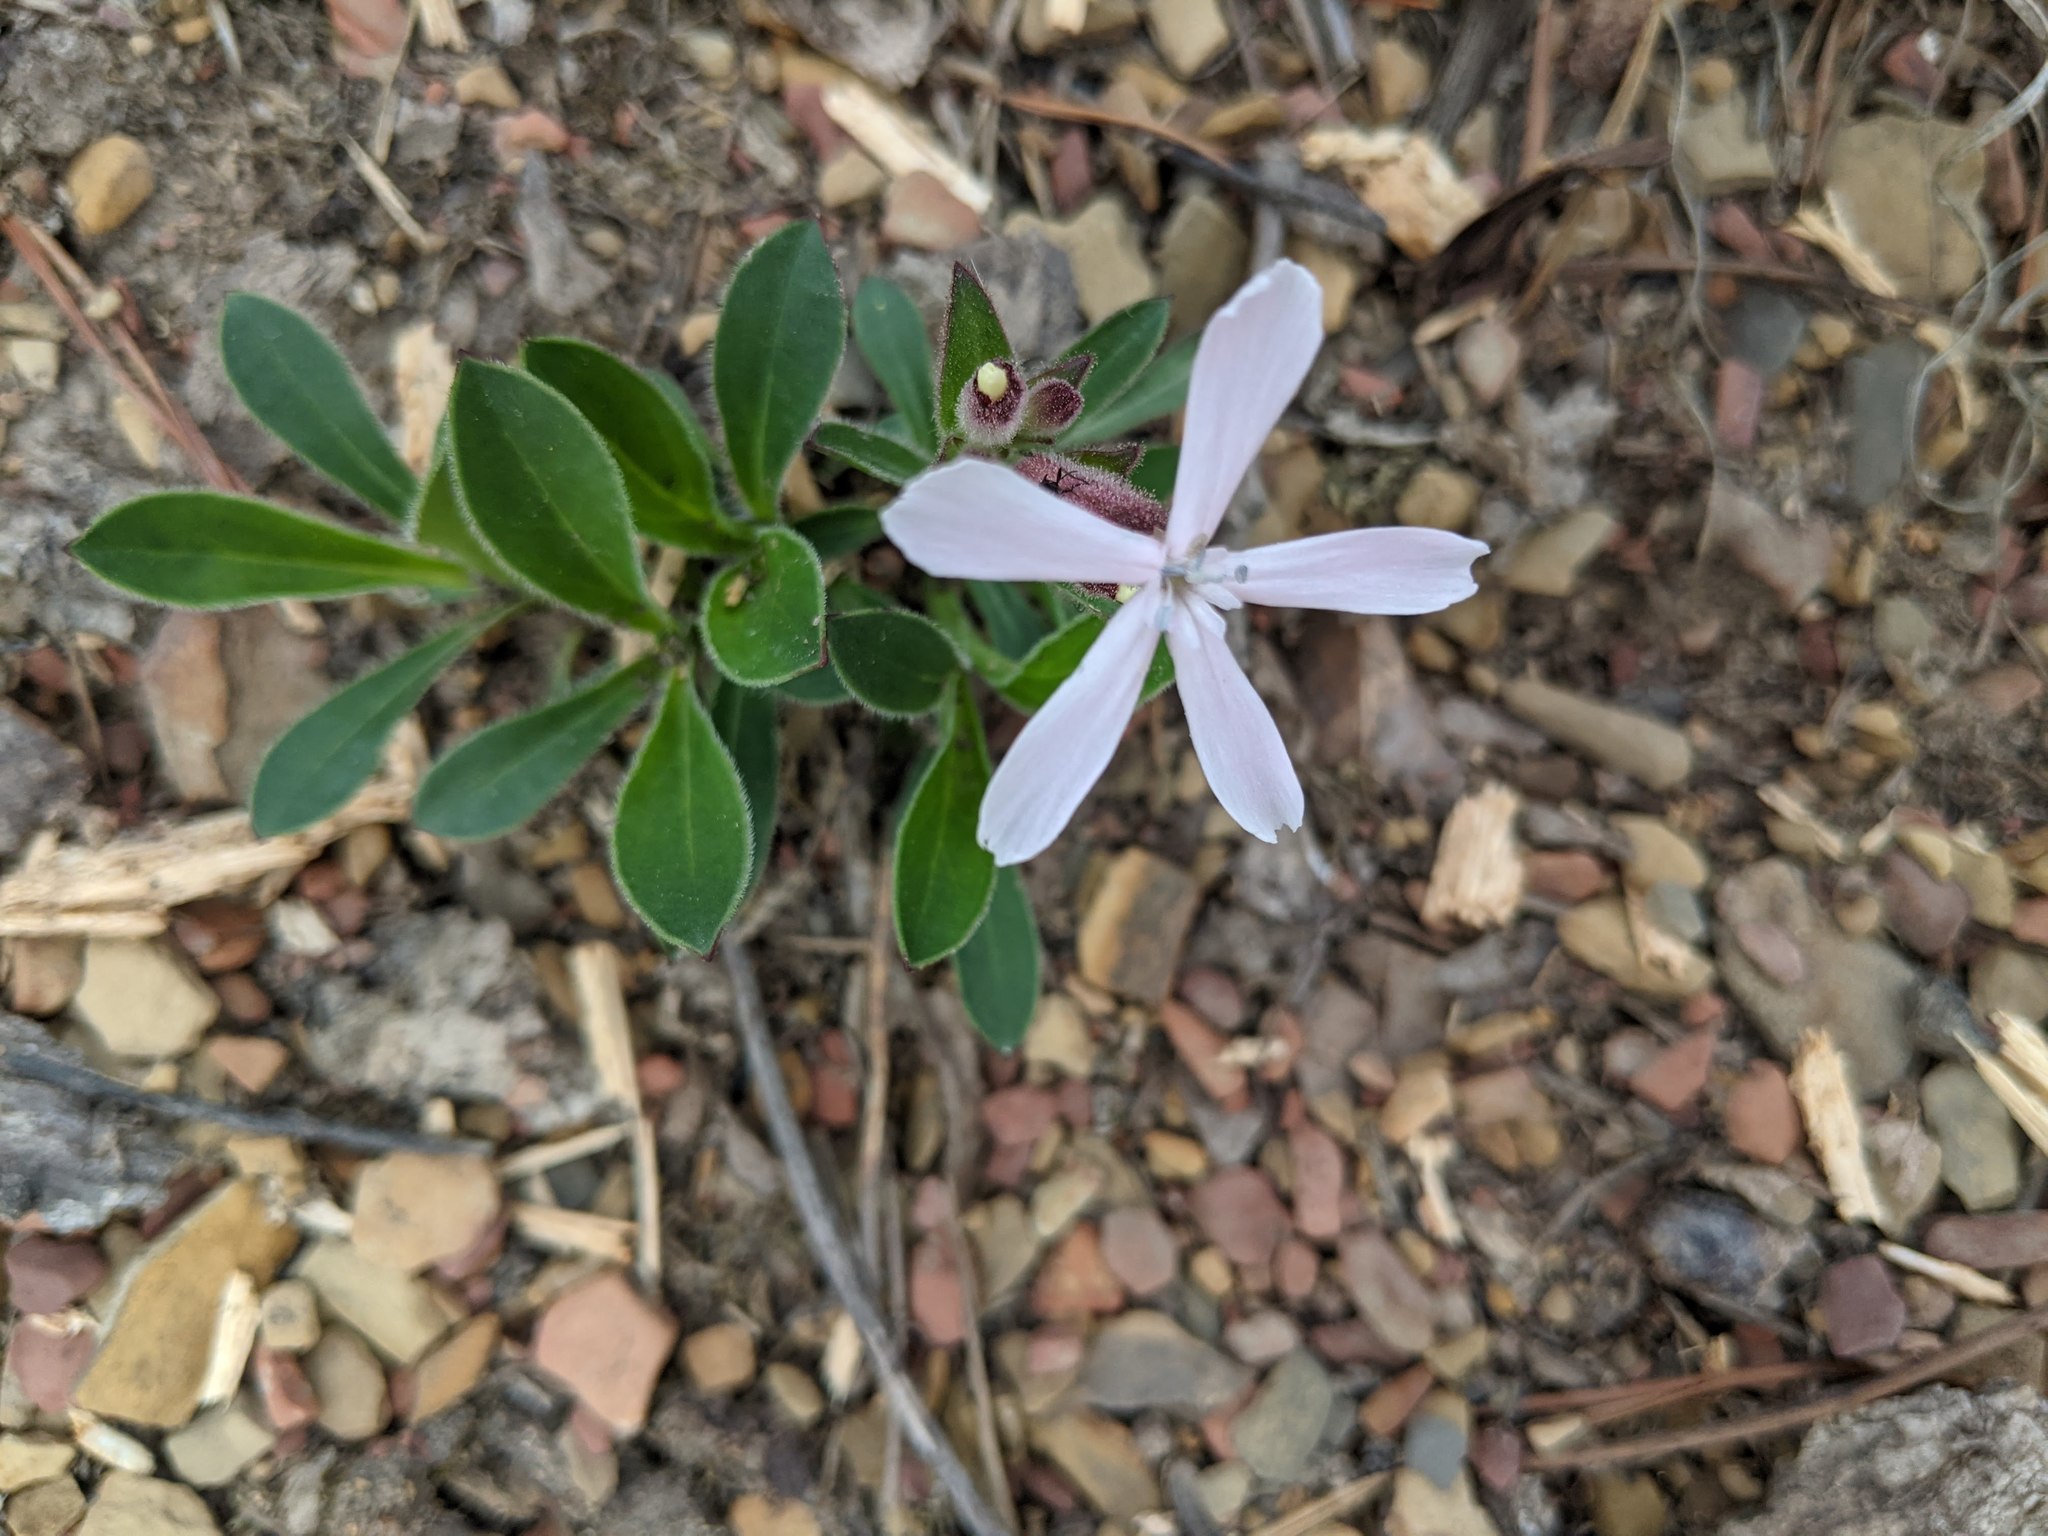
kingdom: Plantae
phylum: Tracheophyta
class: Magnoliopsida
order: Caryophyllales
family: Caryophyllaceae
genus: Silene
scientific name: Silene caroliniana
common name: Sticky catchfly
